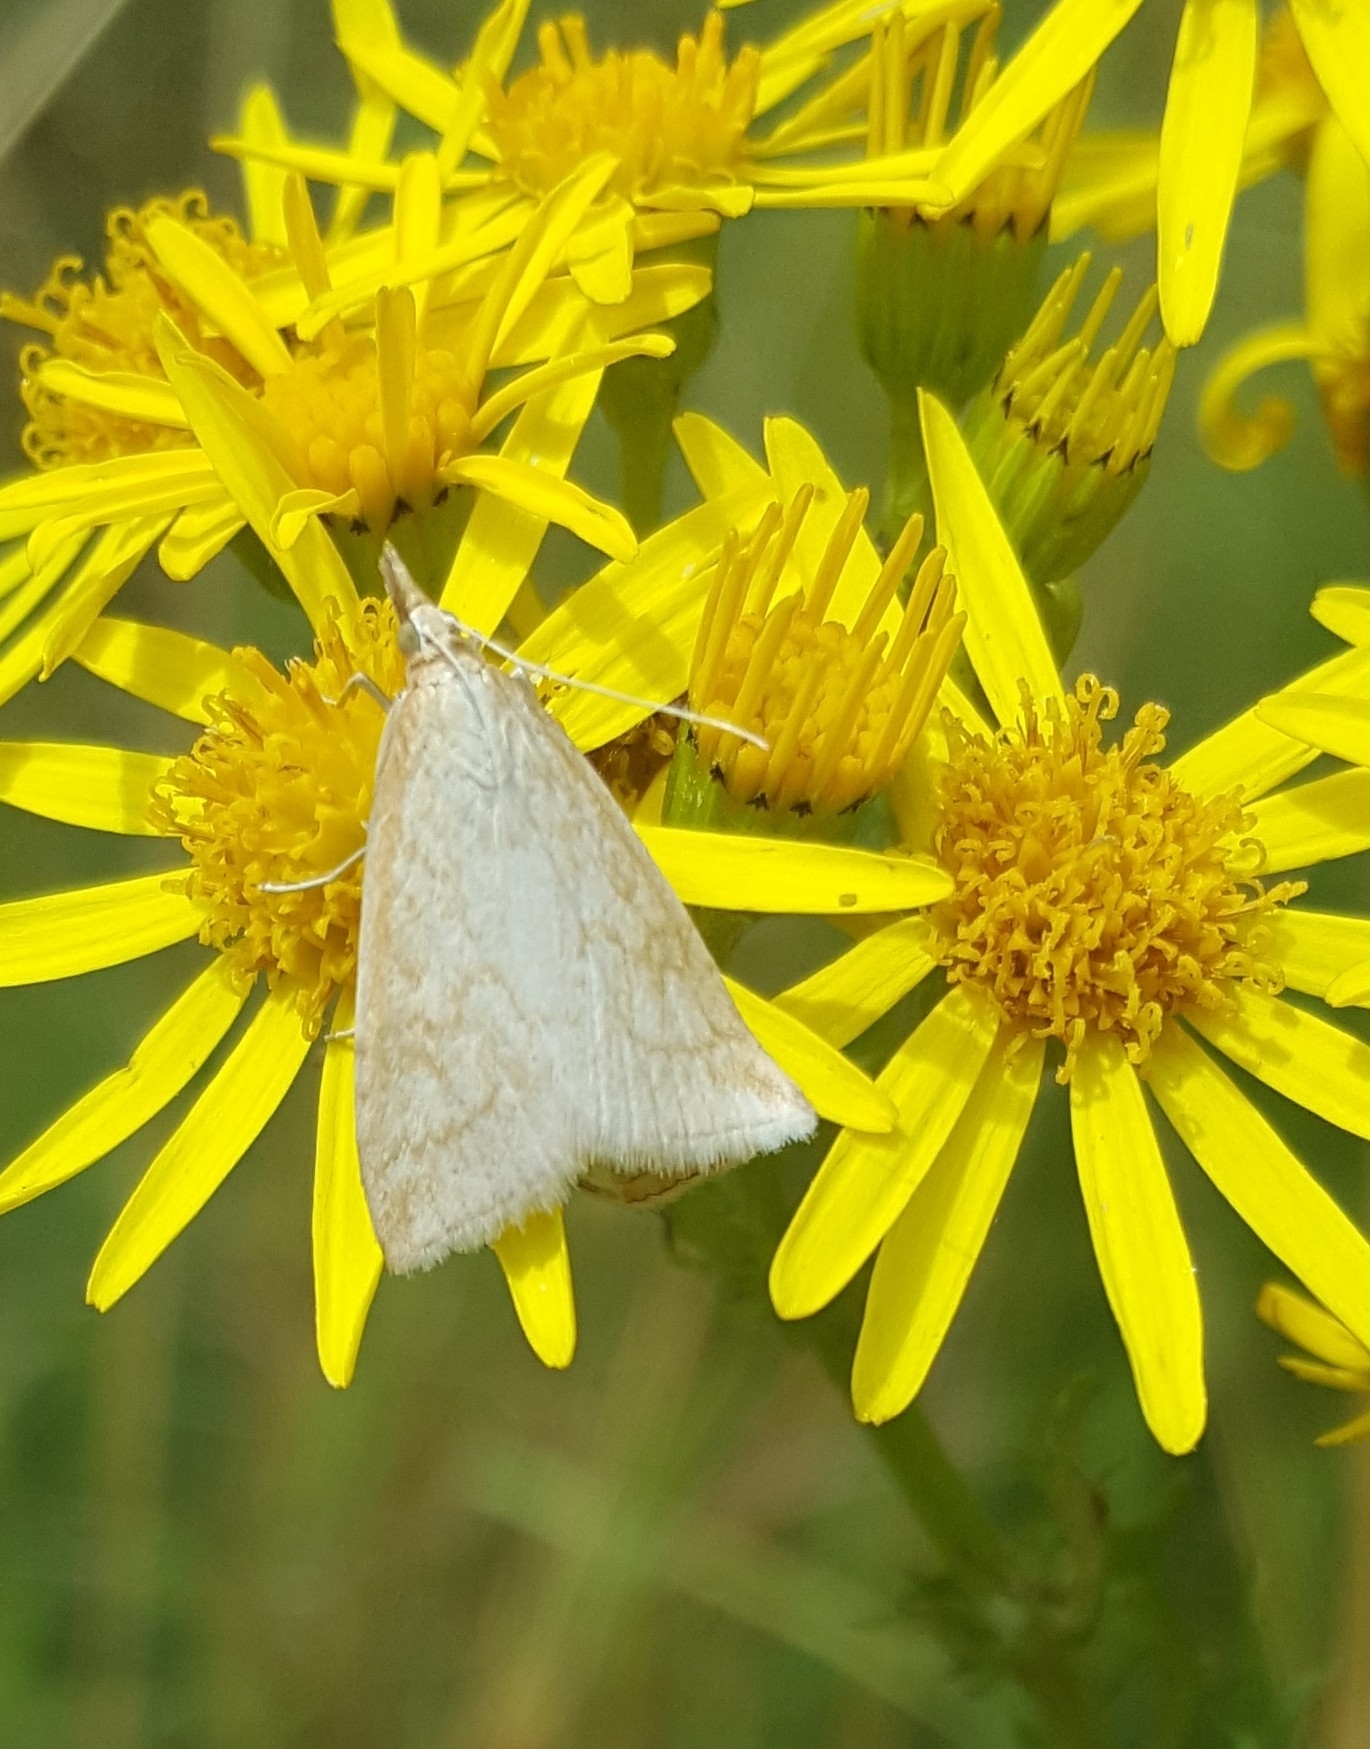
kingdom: Animalia
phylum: Arthropoda
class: Insecta
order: Lepidoptera
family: Crambidae
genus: Udea
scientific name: Udea lutealis
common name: Pale straw pearl
